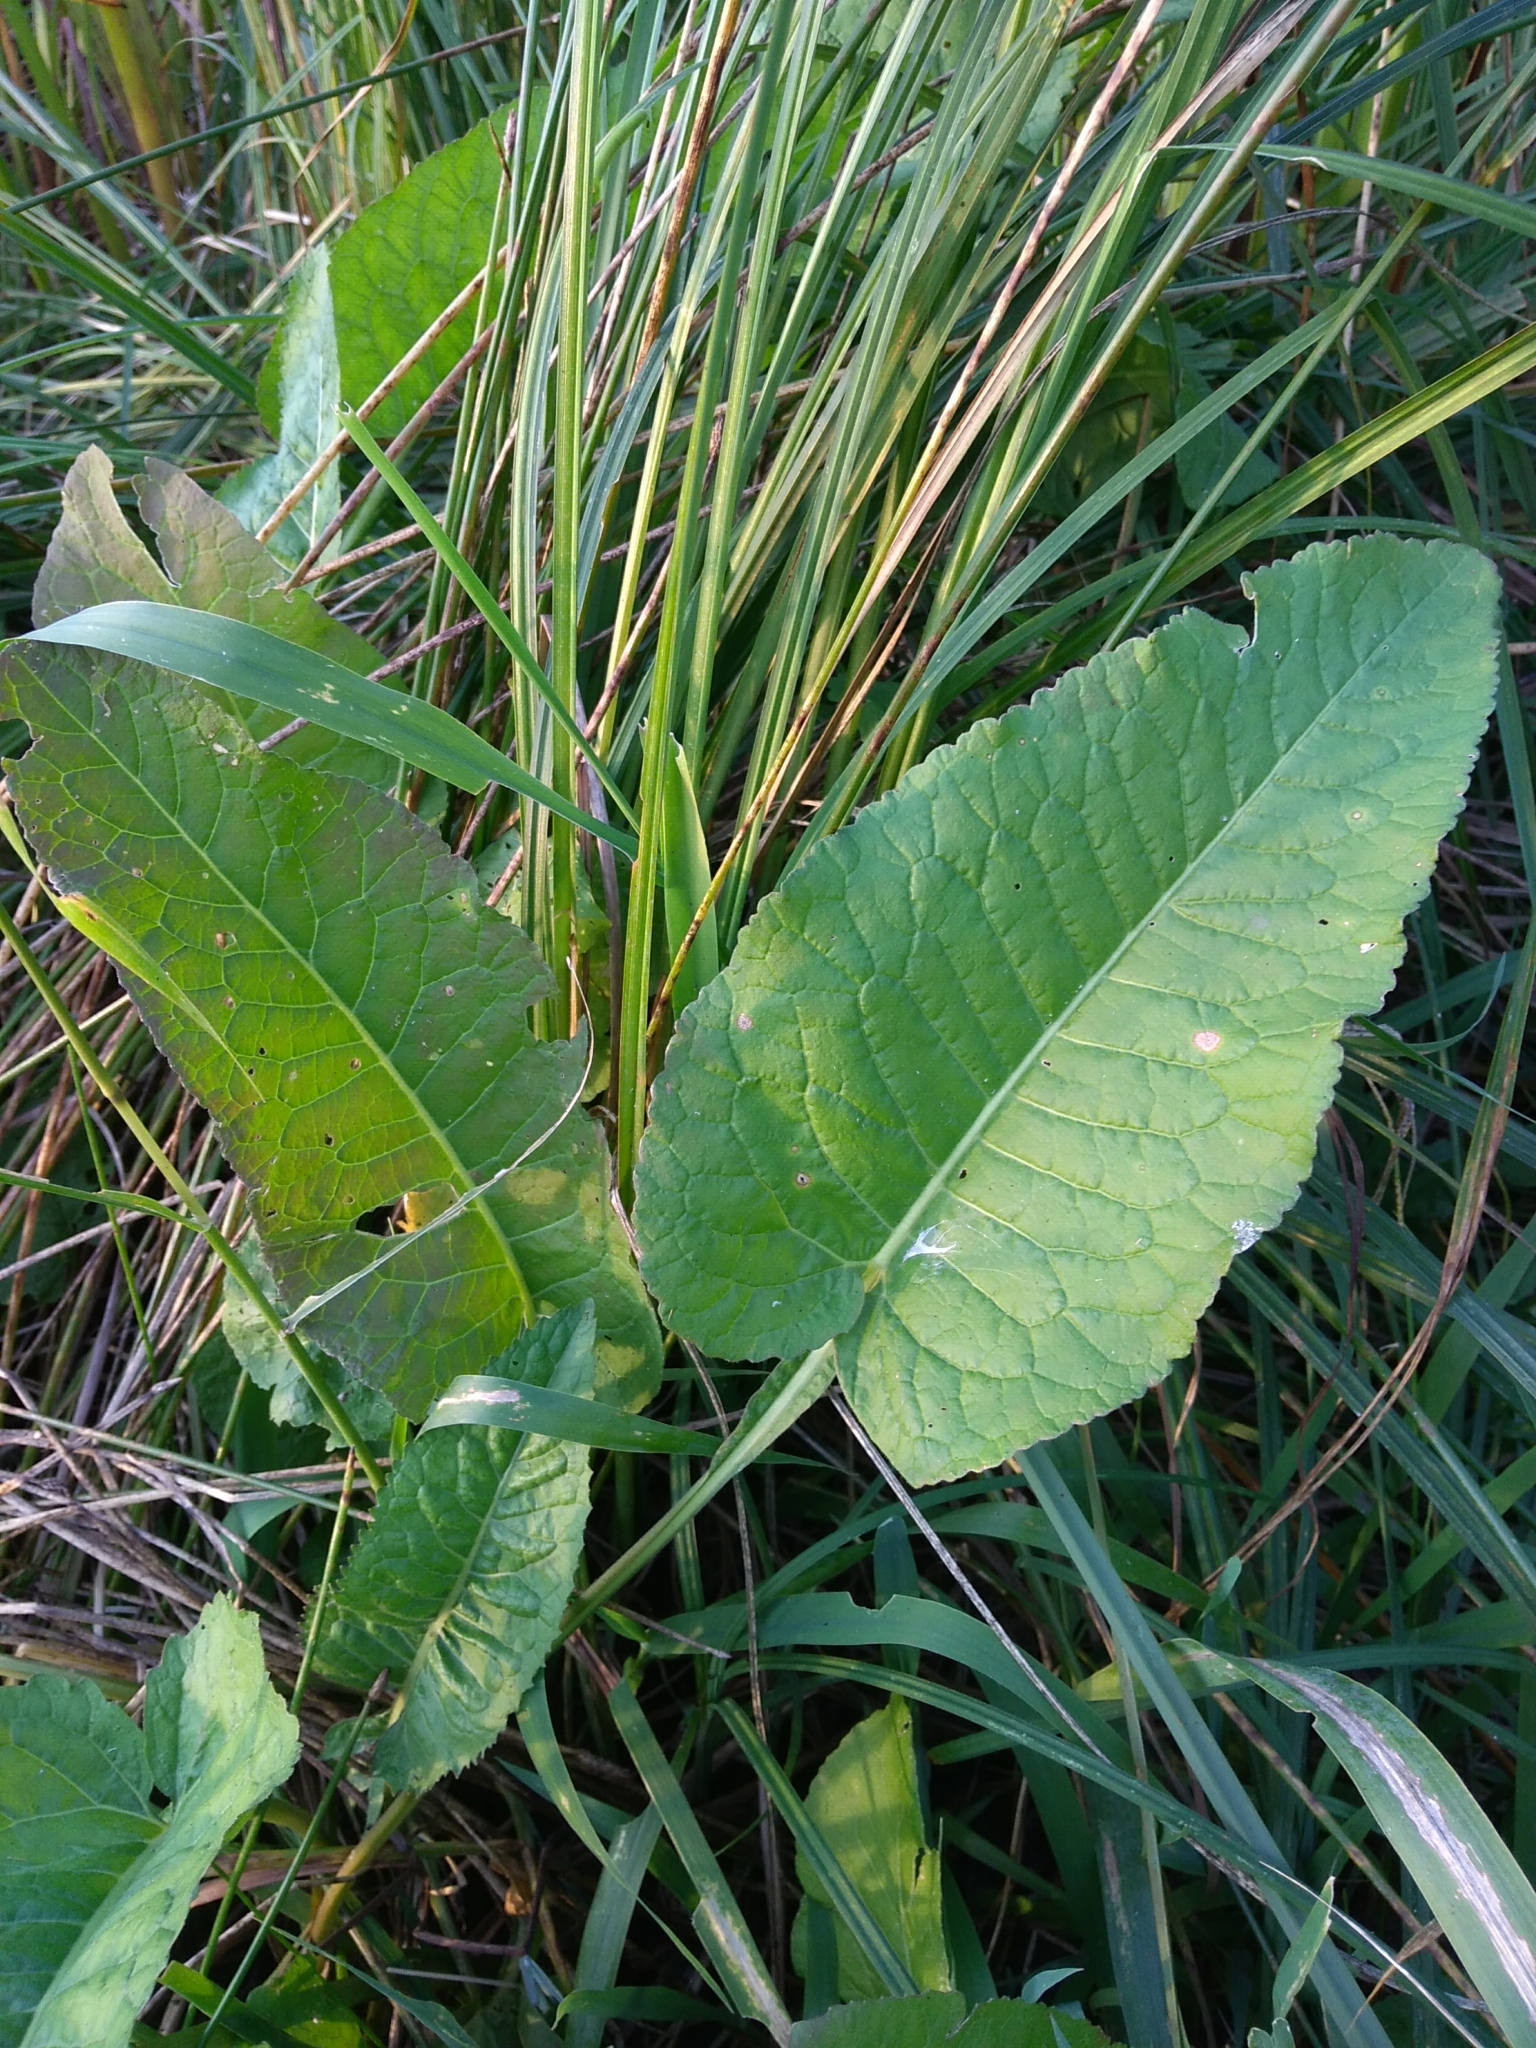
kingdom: Plantae
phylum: Tracheophyta
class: Magnoliopsida
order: Brassicales
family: Brassicaceae
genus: Rorippa
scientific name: Rorippa amphibia
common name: Great yellow-cress
